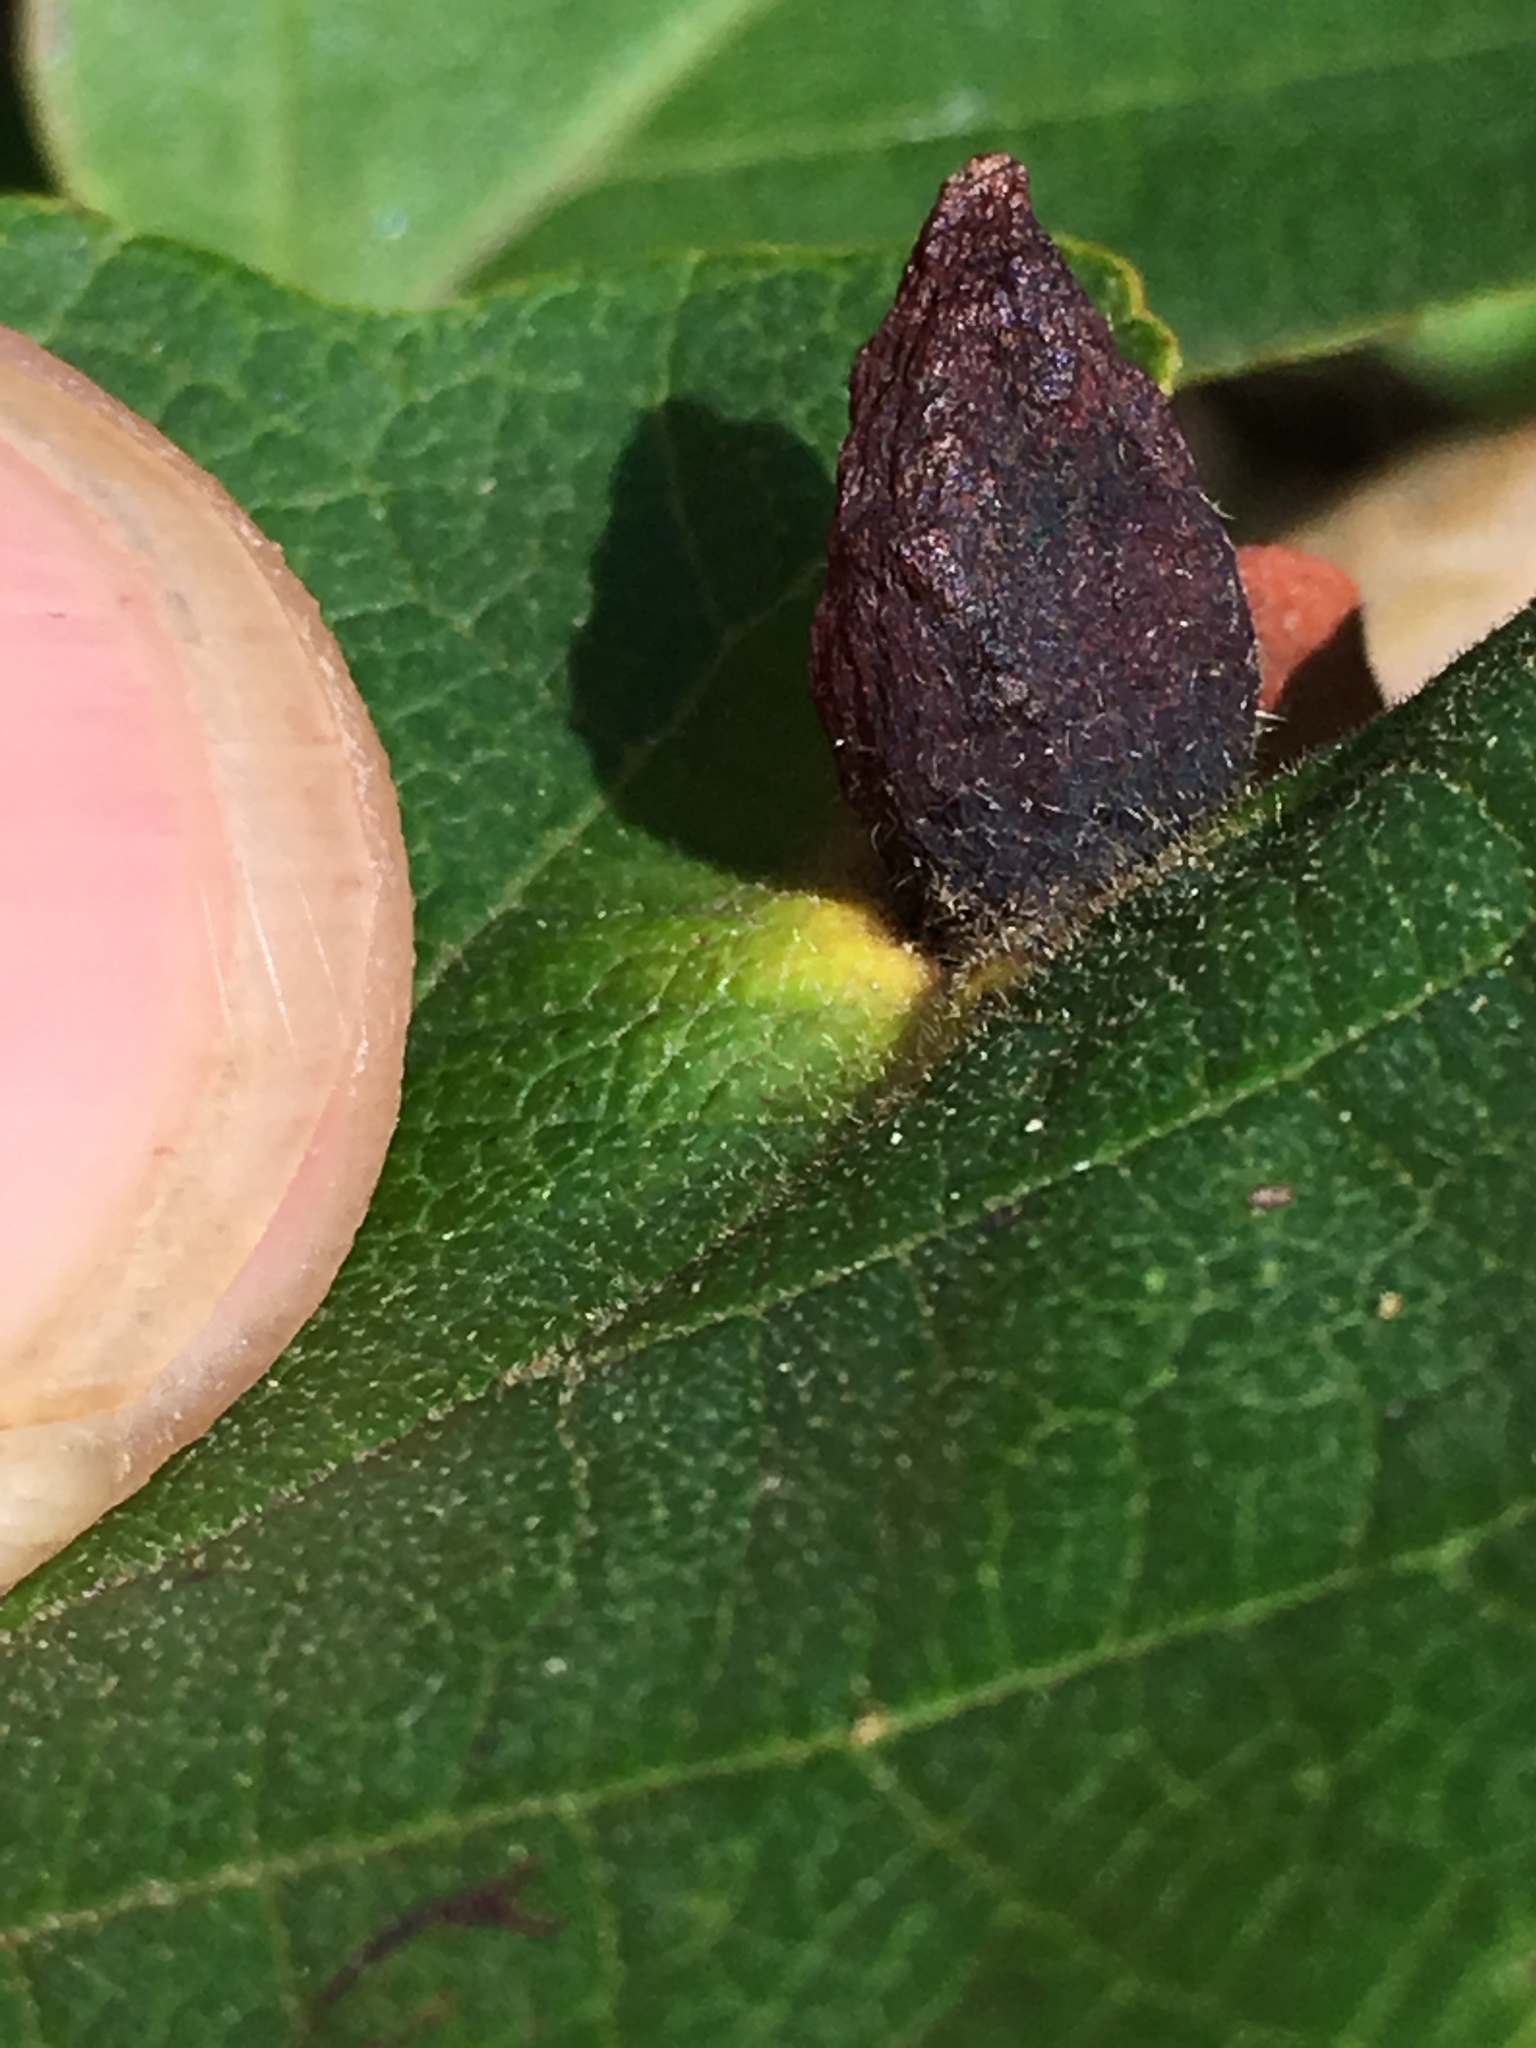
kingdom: Animalia
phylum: Arthropoda
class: Insecta
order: Hemiptera
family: Aphididae
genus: Hormaphis
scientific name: Hormaphis hamamelidis
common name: Witch-hazel cone gall aphid
